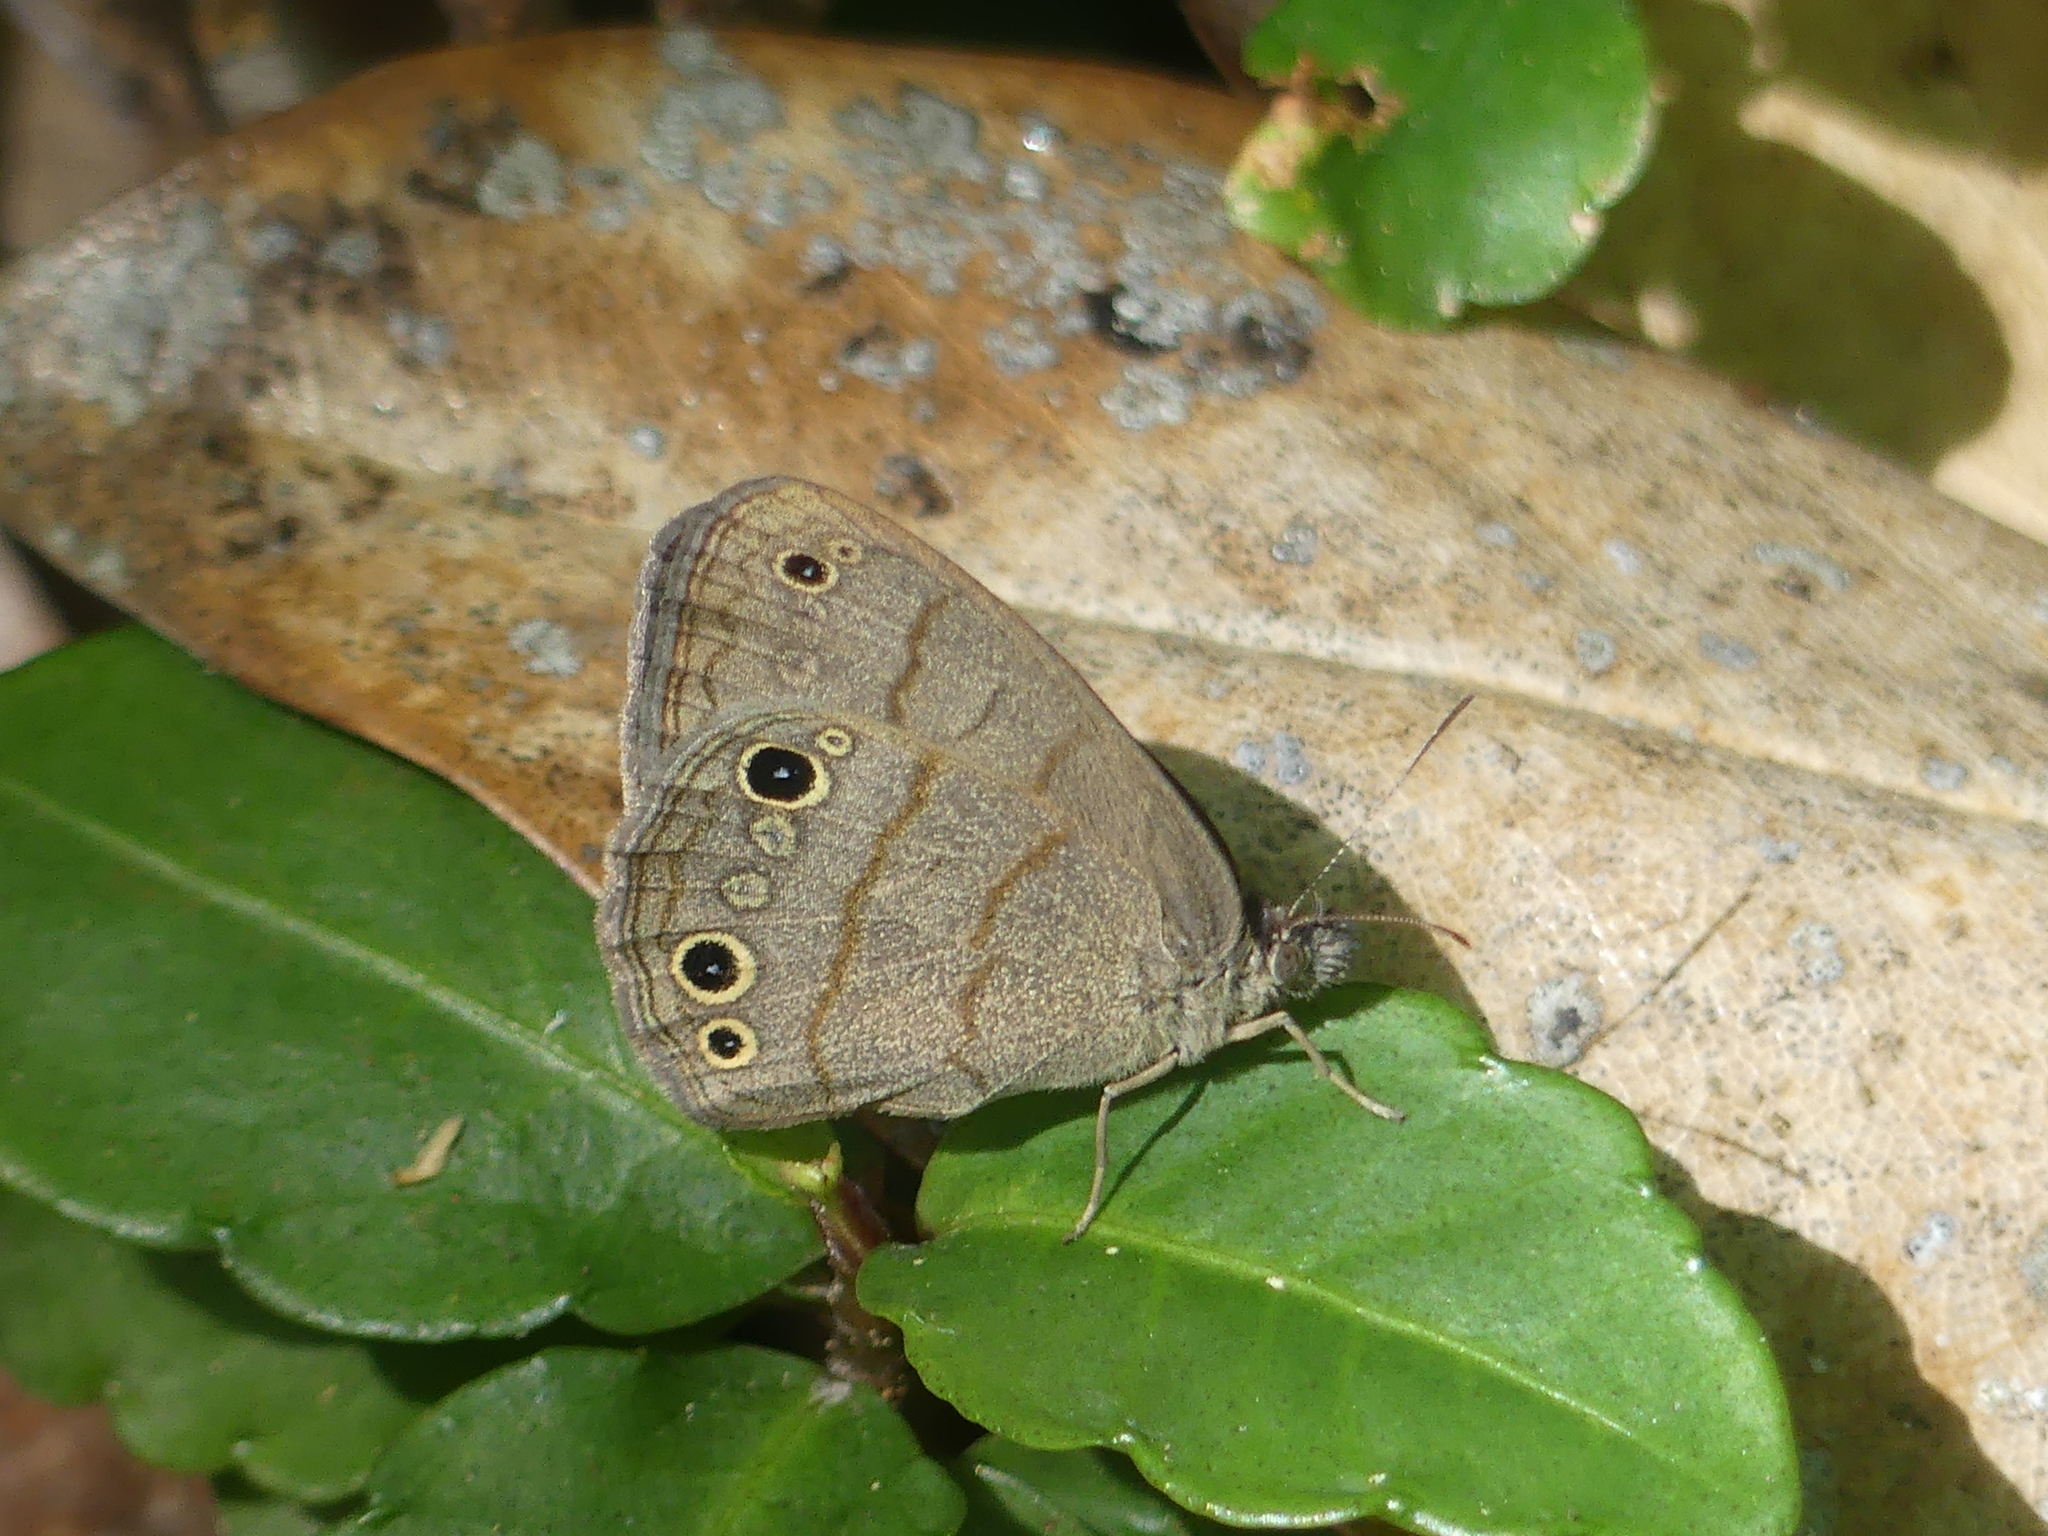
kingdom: Animalia
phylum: Arthropoda
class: Insecta
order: Lepidoptera
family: Nymphalidae
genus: Hermeuptychia
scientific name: Hermeuptychia intricata
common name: Intricate satyr
